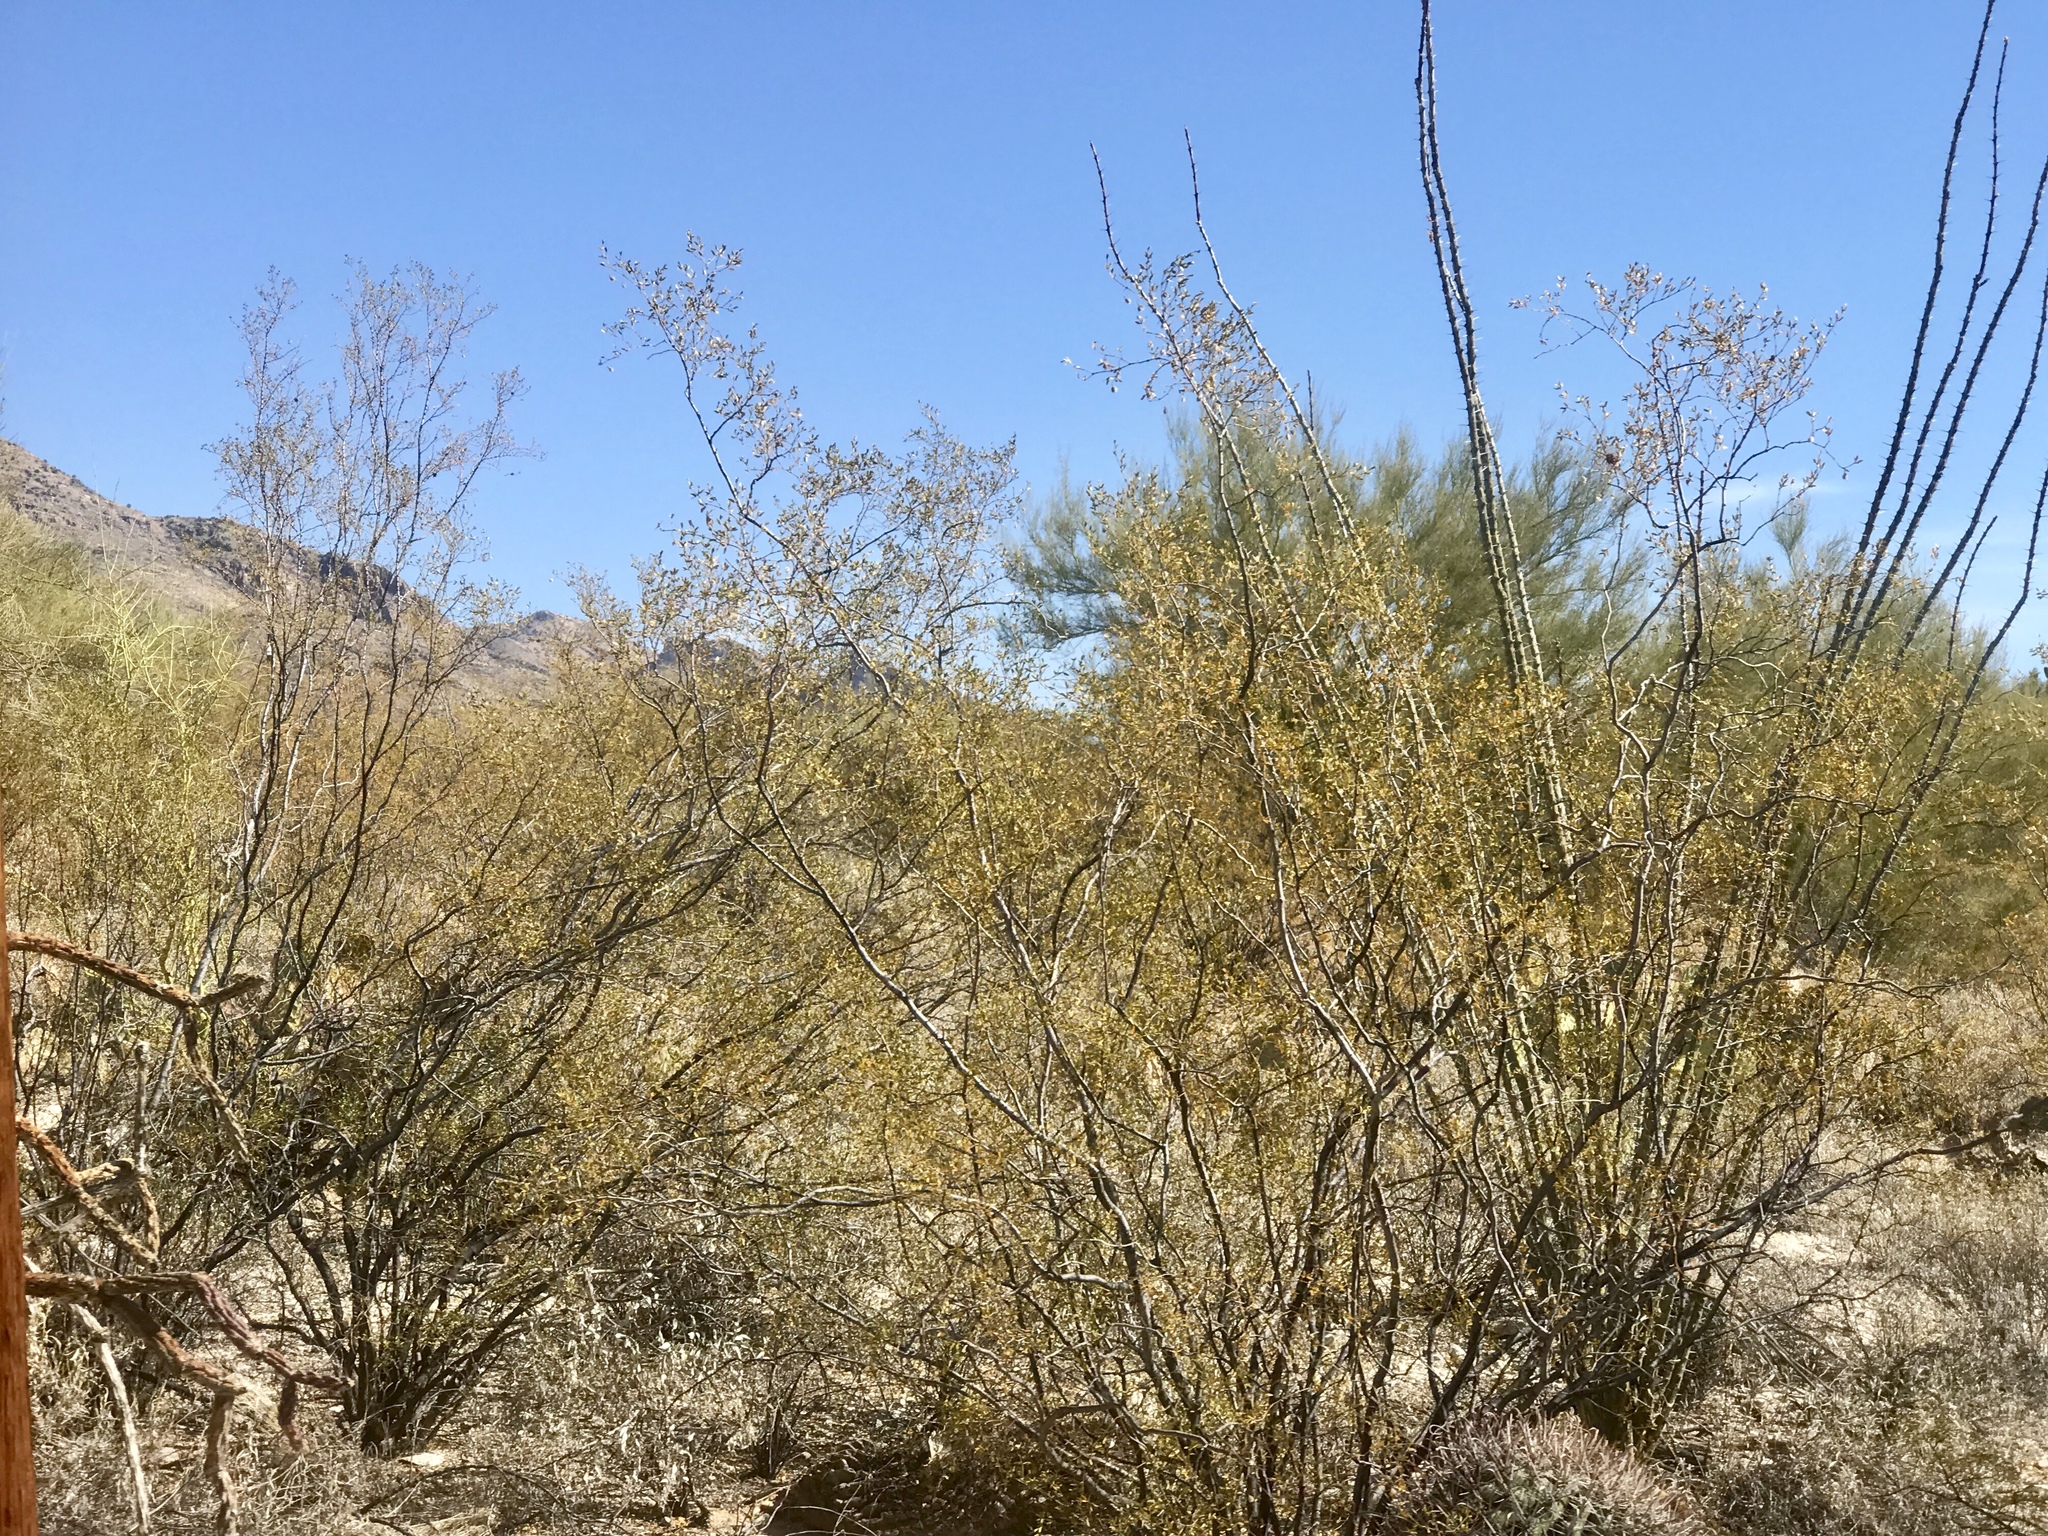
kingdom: Plantae
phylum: Tracheophyta
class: Magnoliopsida
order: Zygophyllales
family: Zygophyllaceae
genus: Larrea
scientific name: Larrea tridentata
